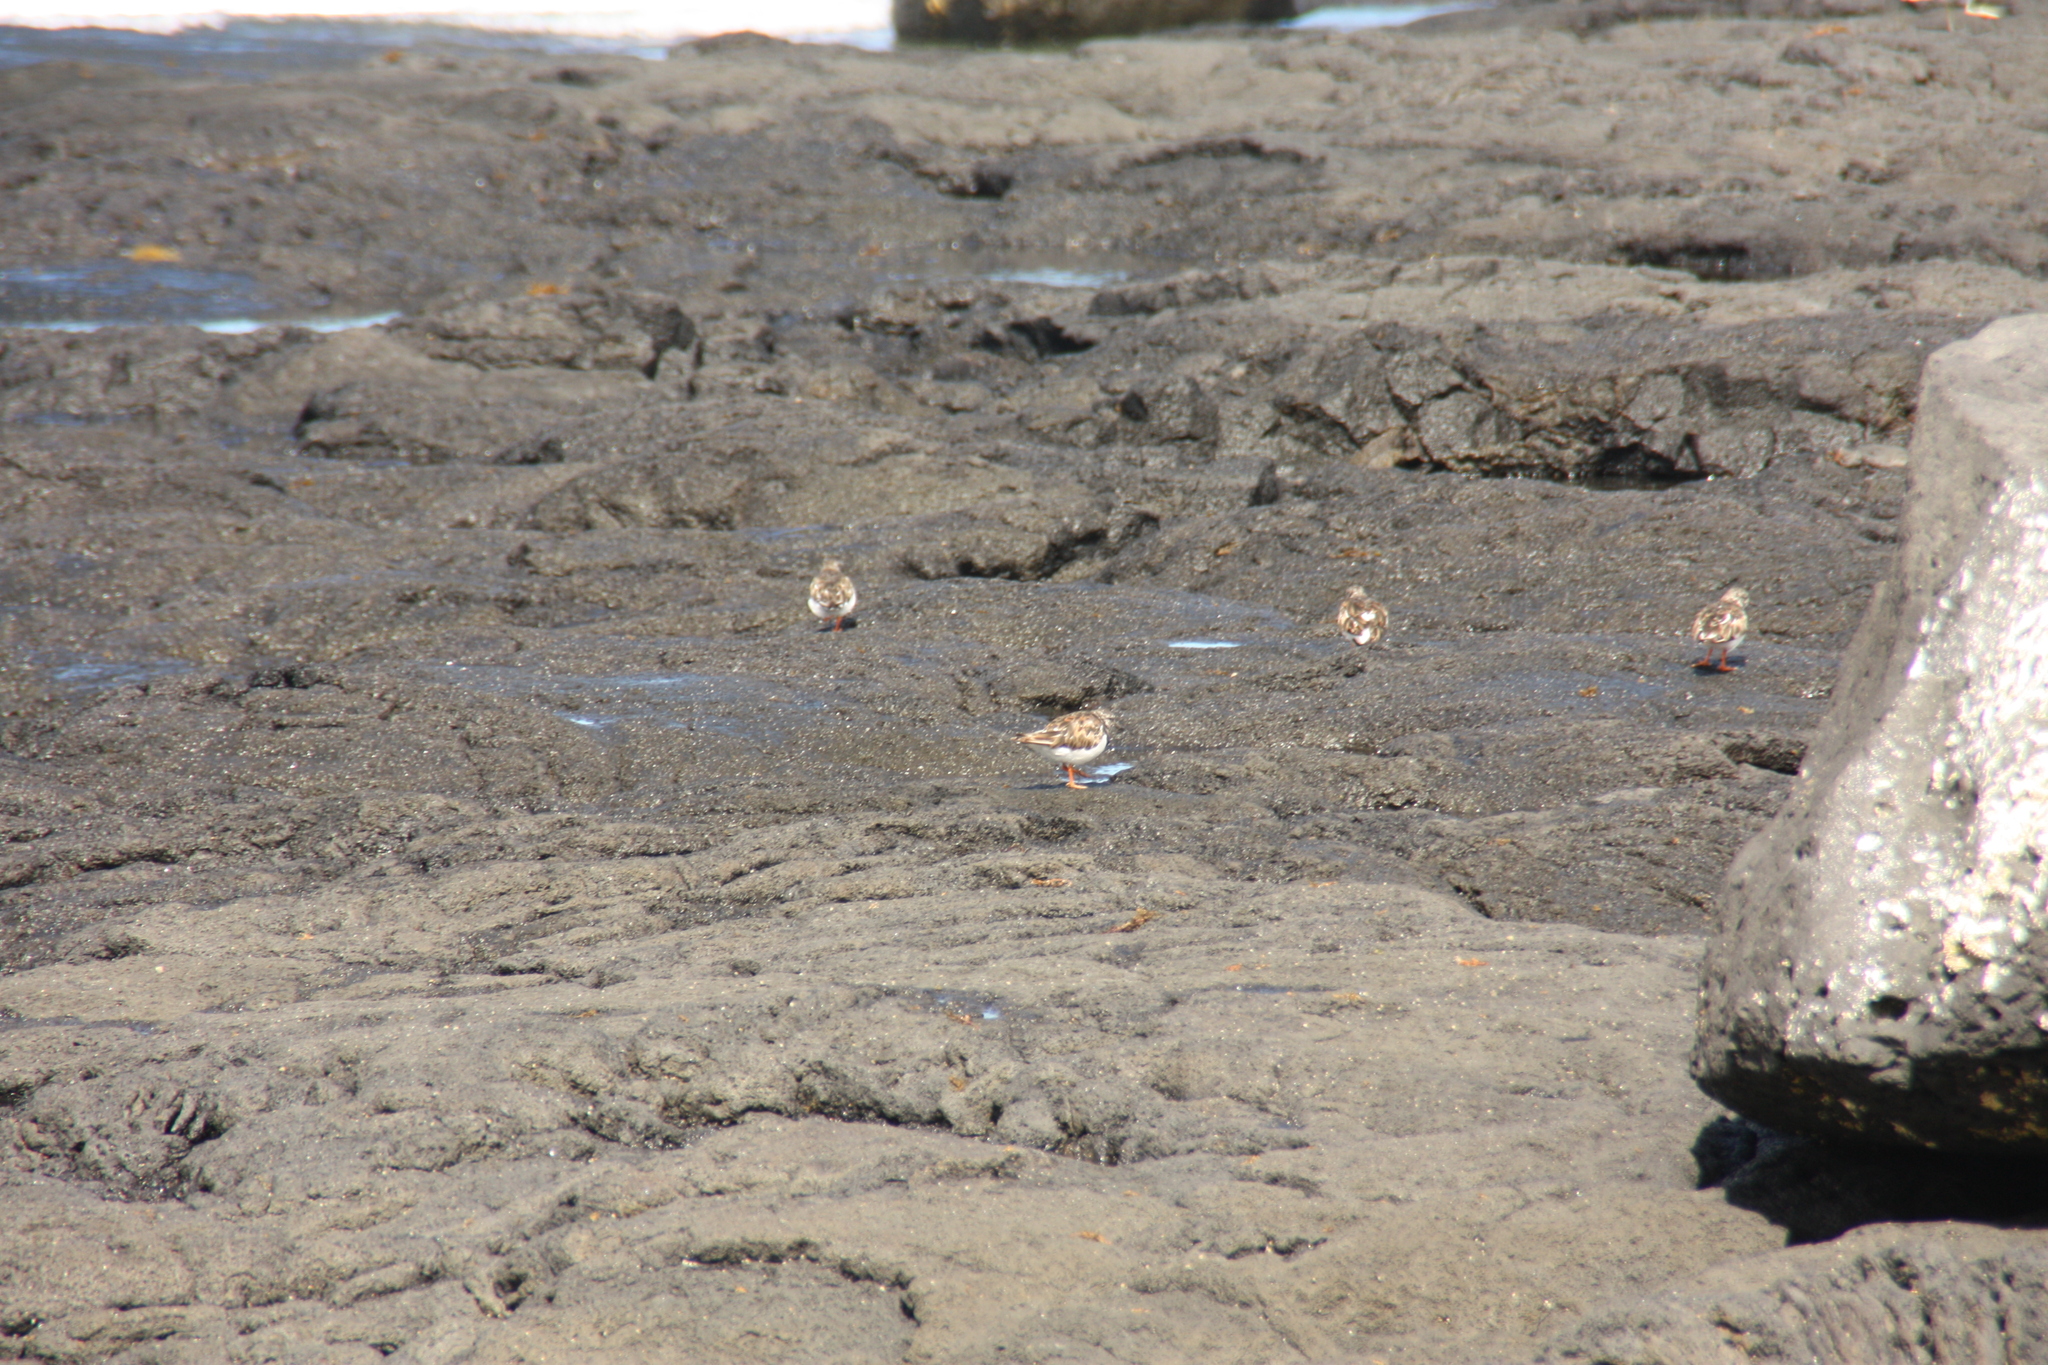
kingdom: Animalia
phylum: Chordata
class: Aves
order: Charadriiformes
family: Scolopacidae
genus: Arenaria
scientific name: Arenaria interpres
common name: Ruddy turnstone
